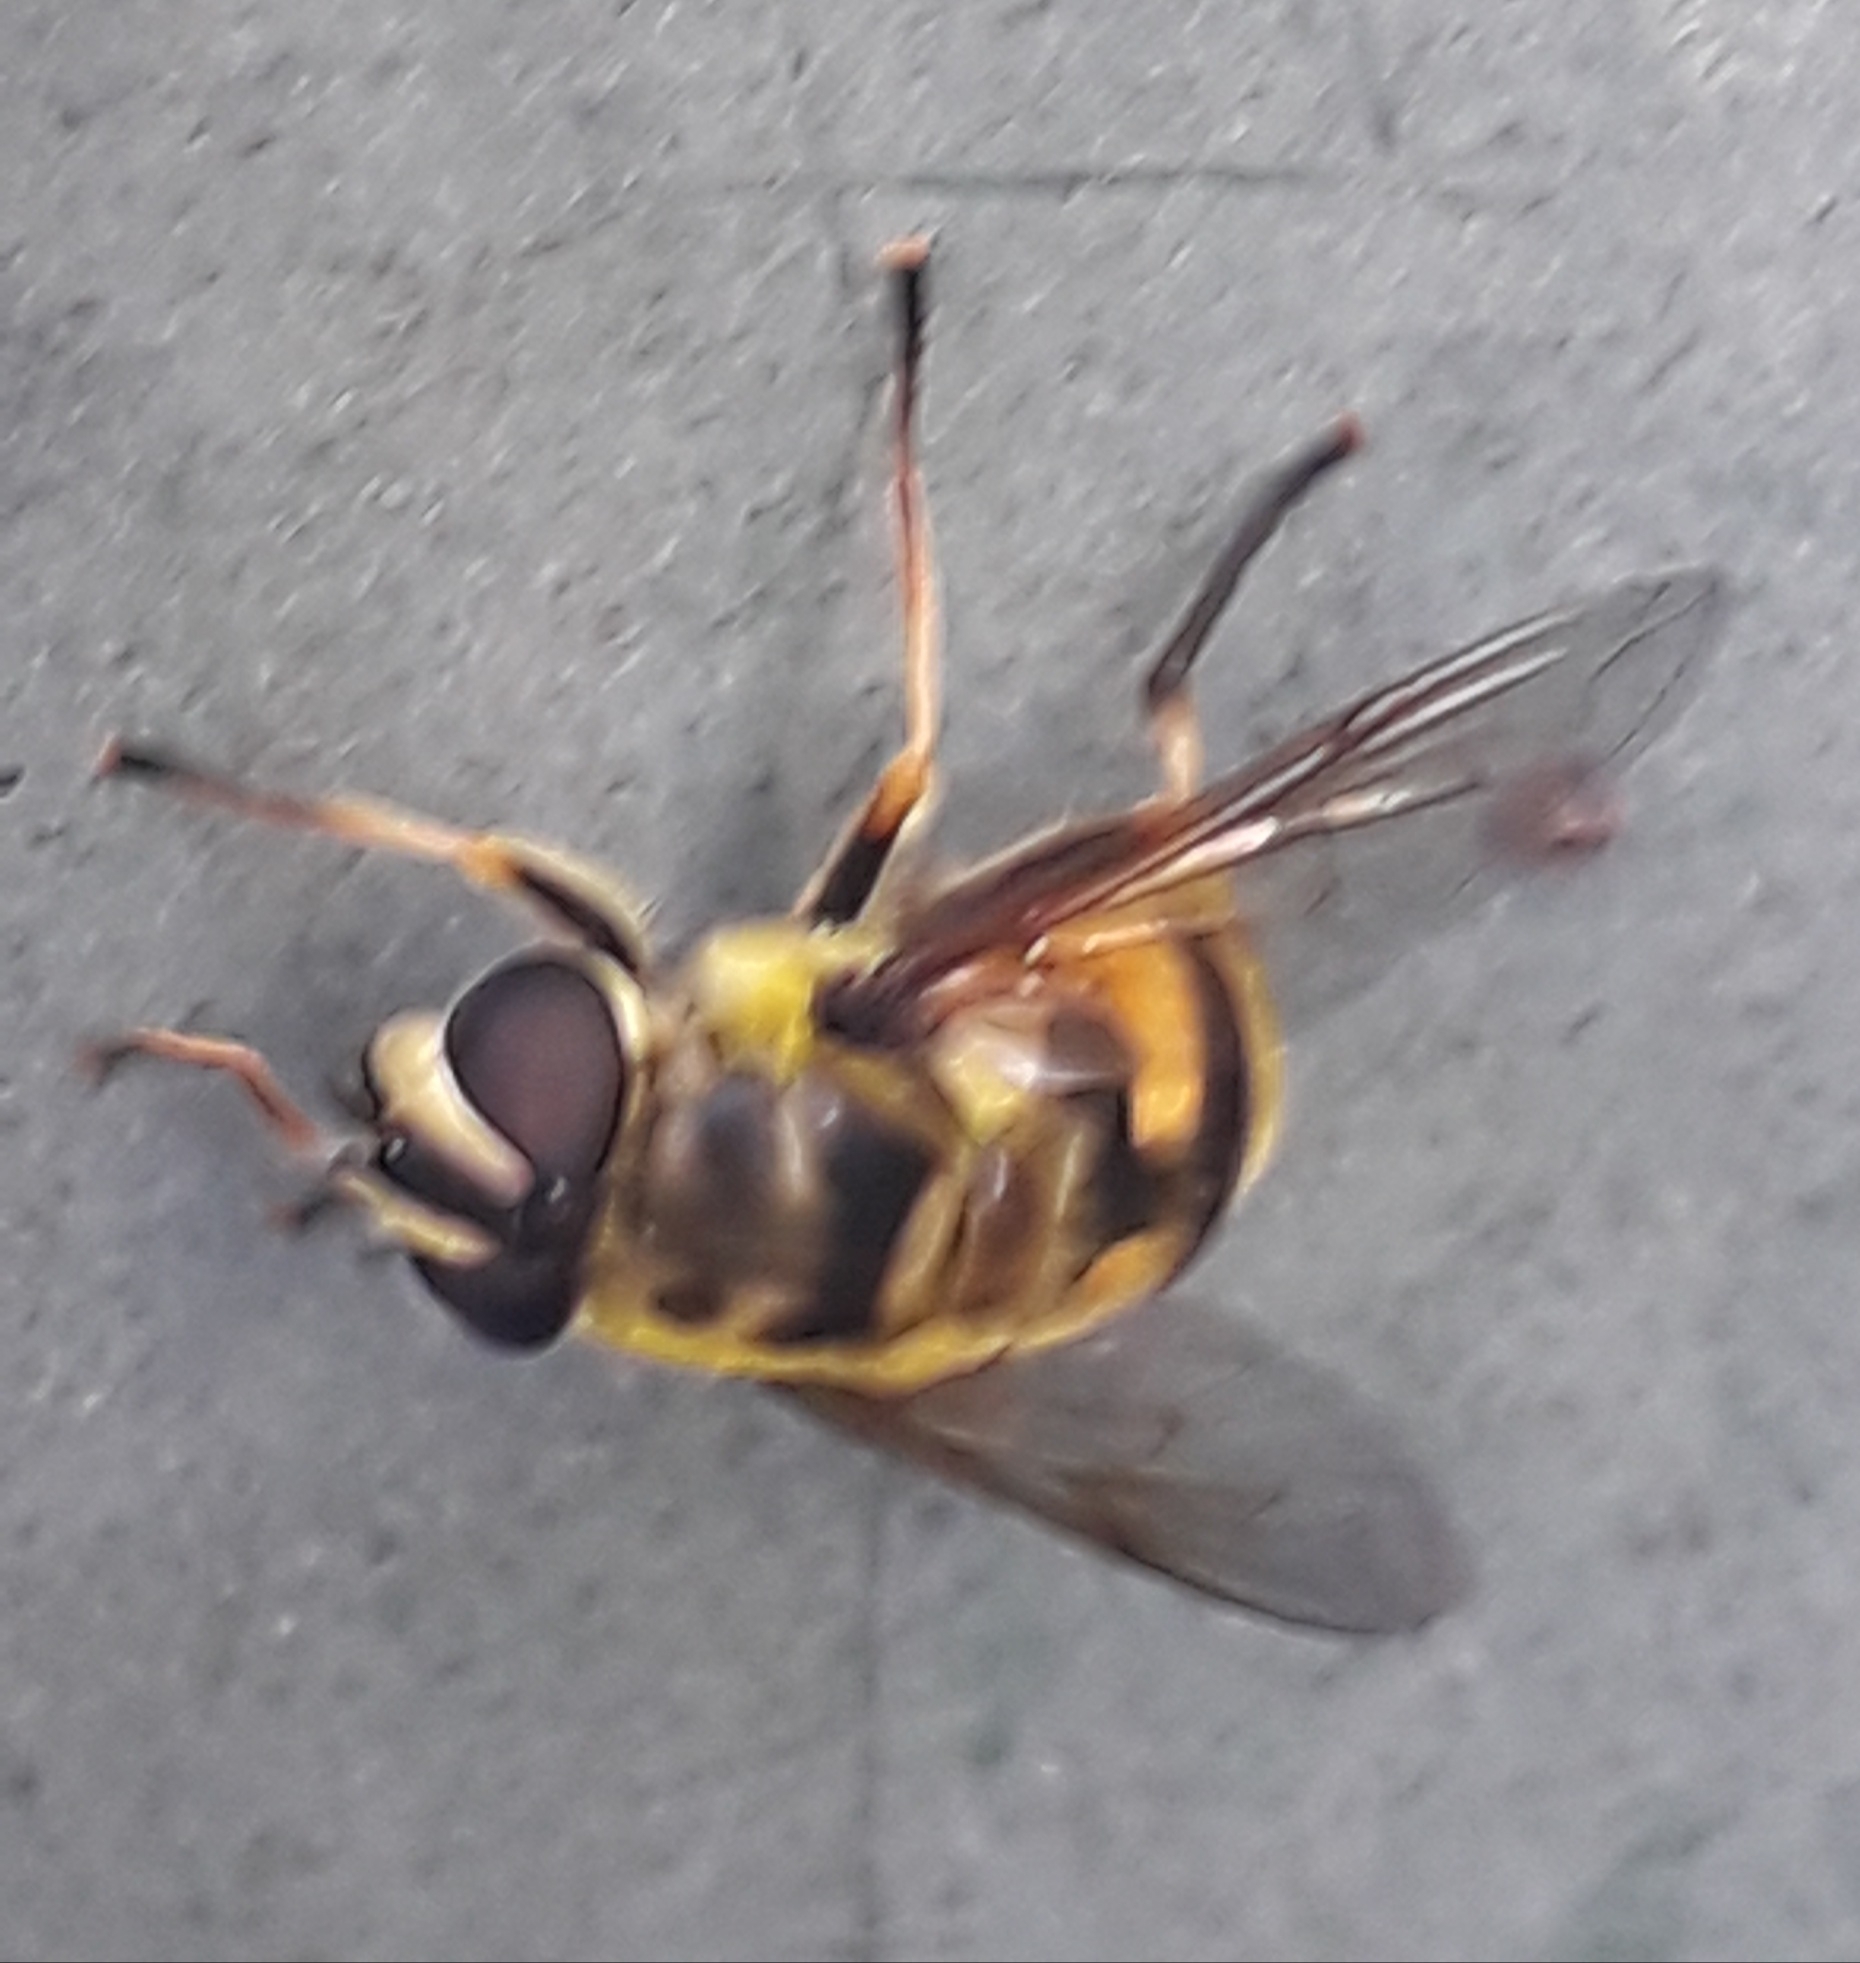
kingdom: Animalia
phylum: Arthropoda
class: Insecta
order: Diptera
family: Syrphidae
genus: Myathropa
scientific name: Myathropa florea
